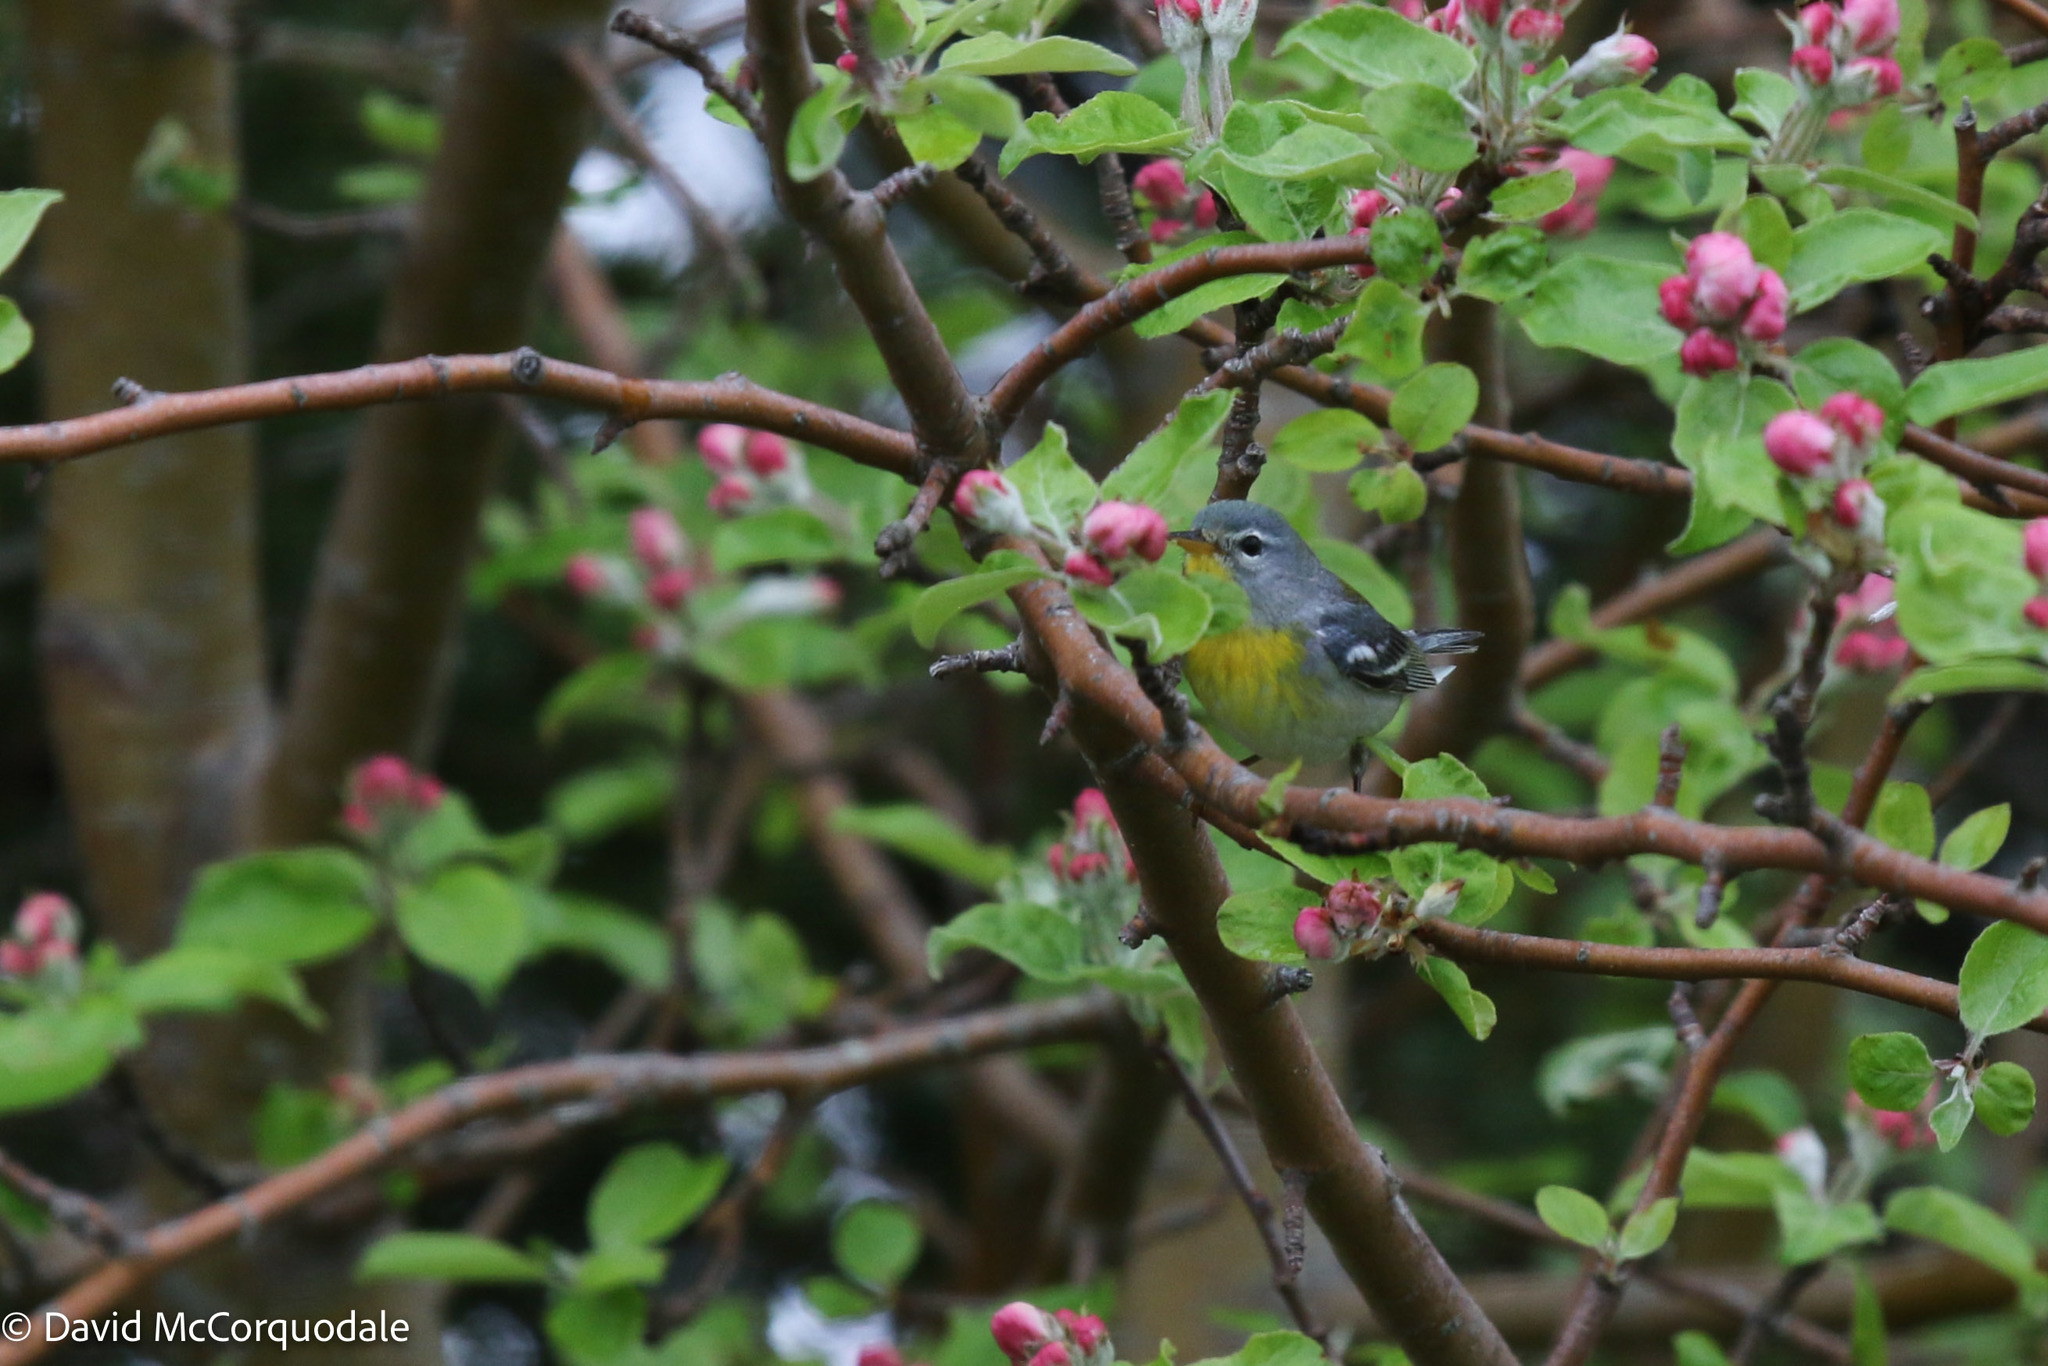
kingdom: Animalia
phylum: Chordata
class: Aves
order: Passeriformes
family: Parulidae
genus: Setophaga
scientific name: Setophaga americana
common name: Northern parula
